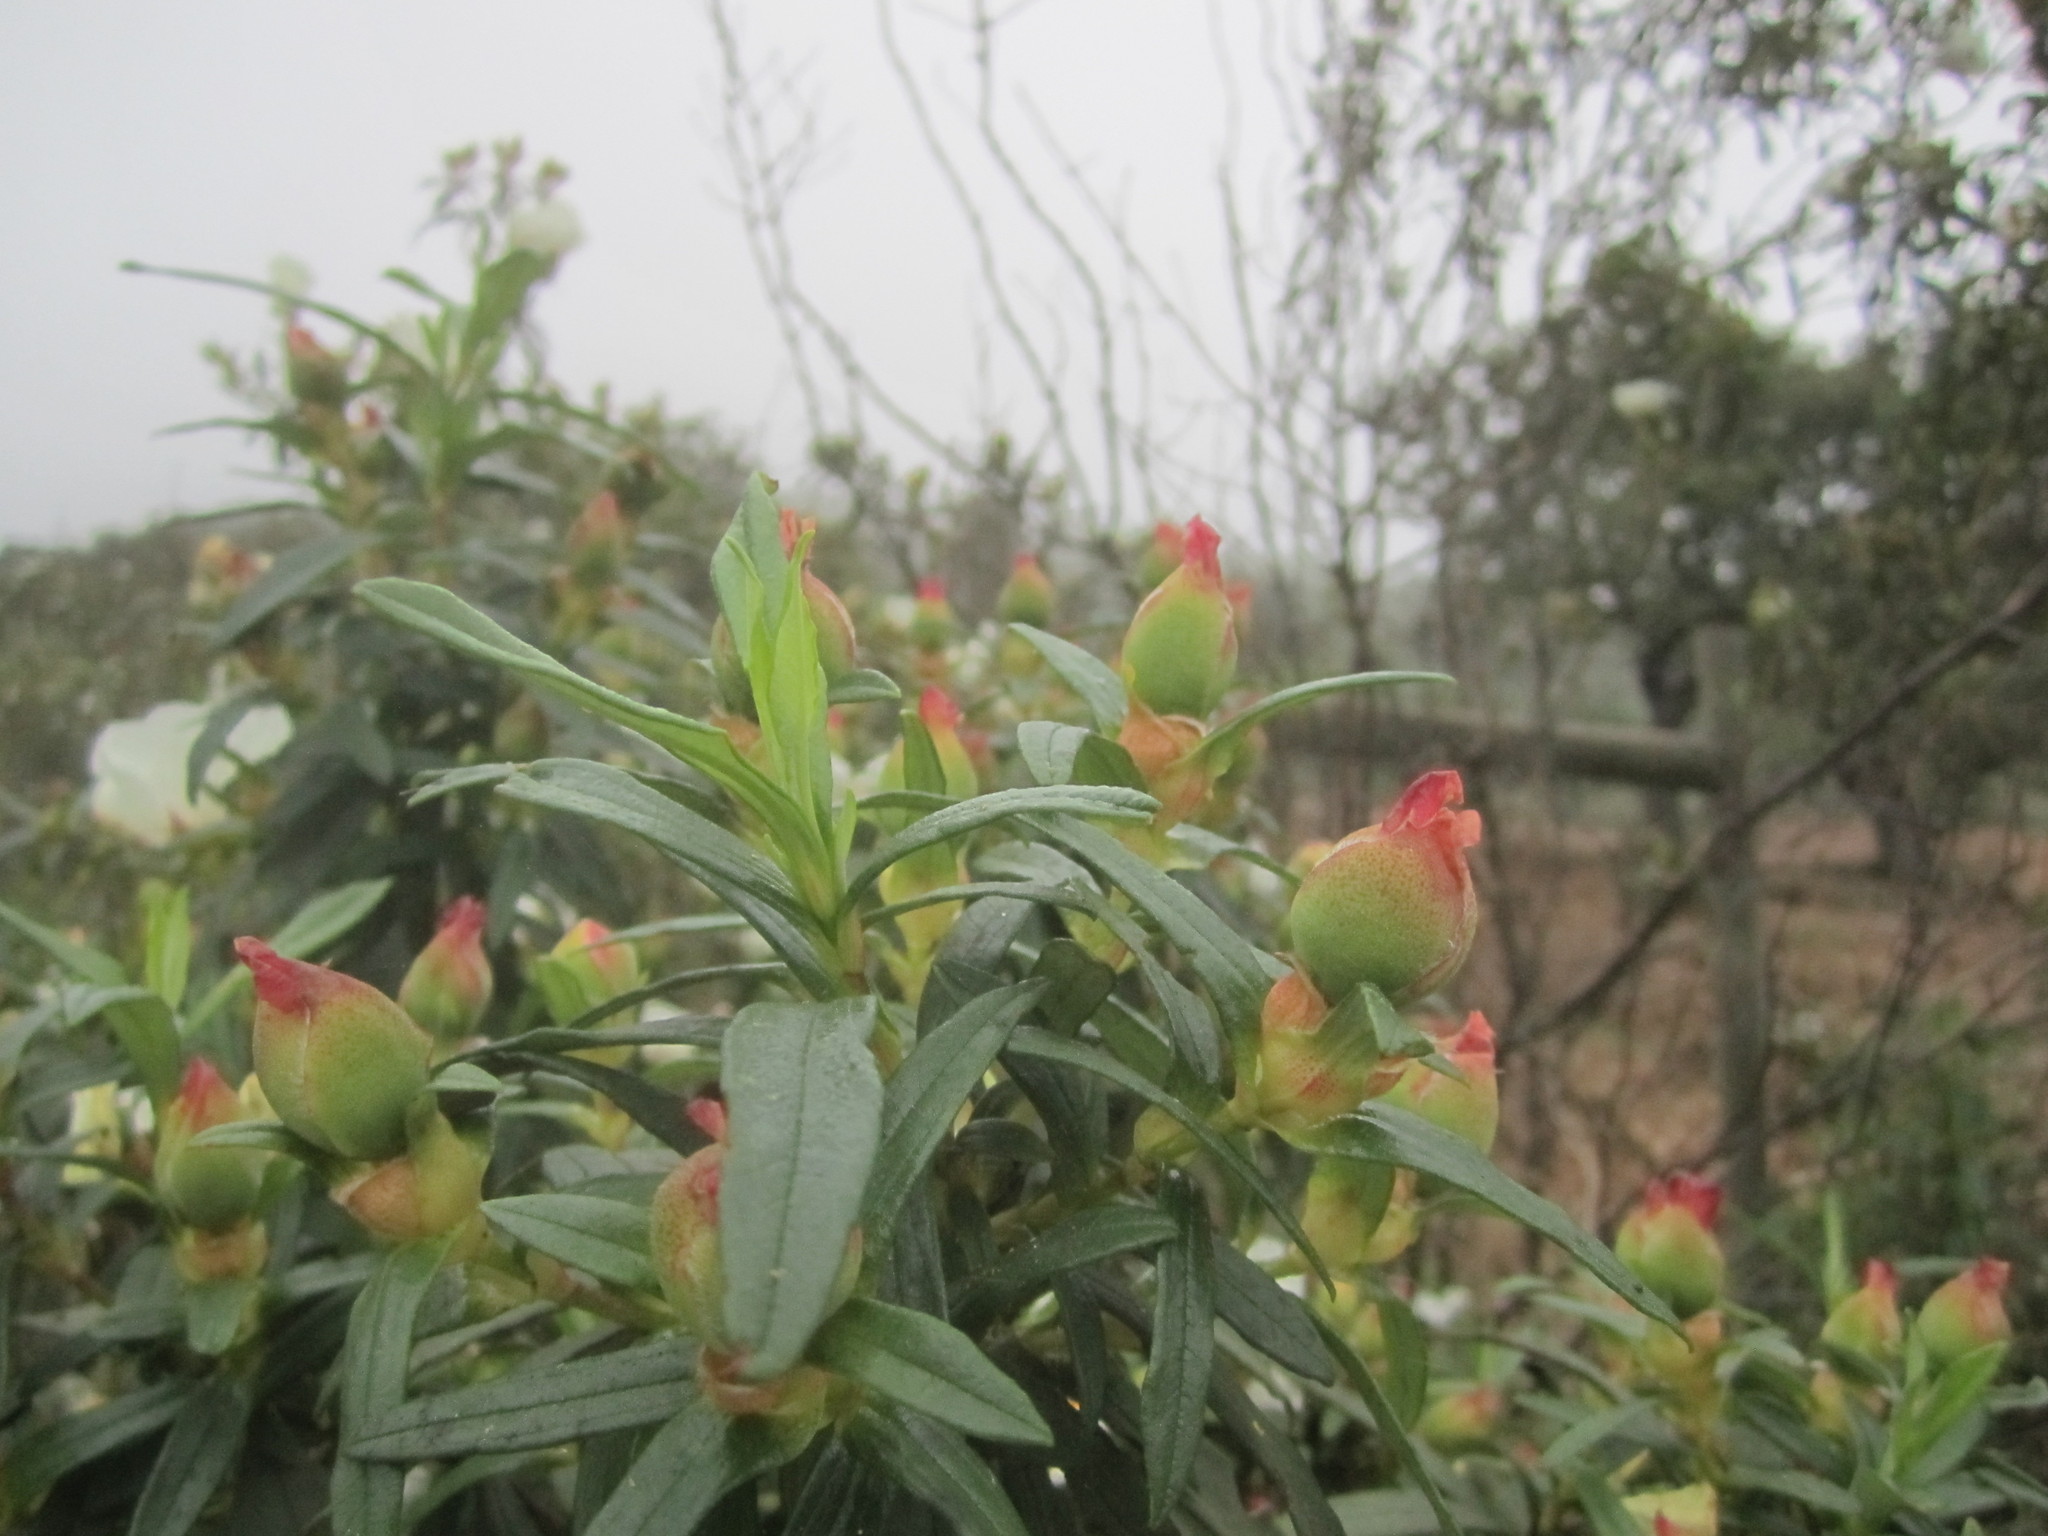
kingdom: Plantae
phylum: Tracheophyta
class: Magnoliopsida
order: Malvales
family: Cistaceae
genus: Cistus
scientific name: Cistus ladanifer
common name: Common gum cistus
